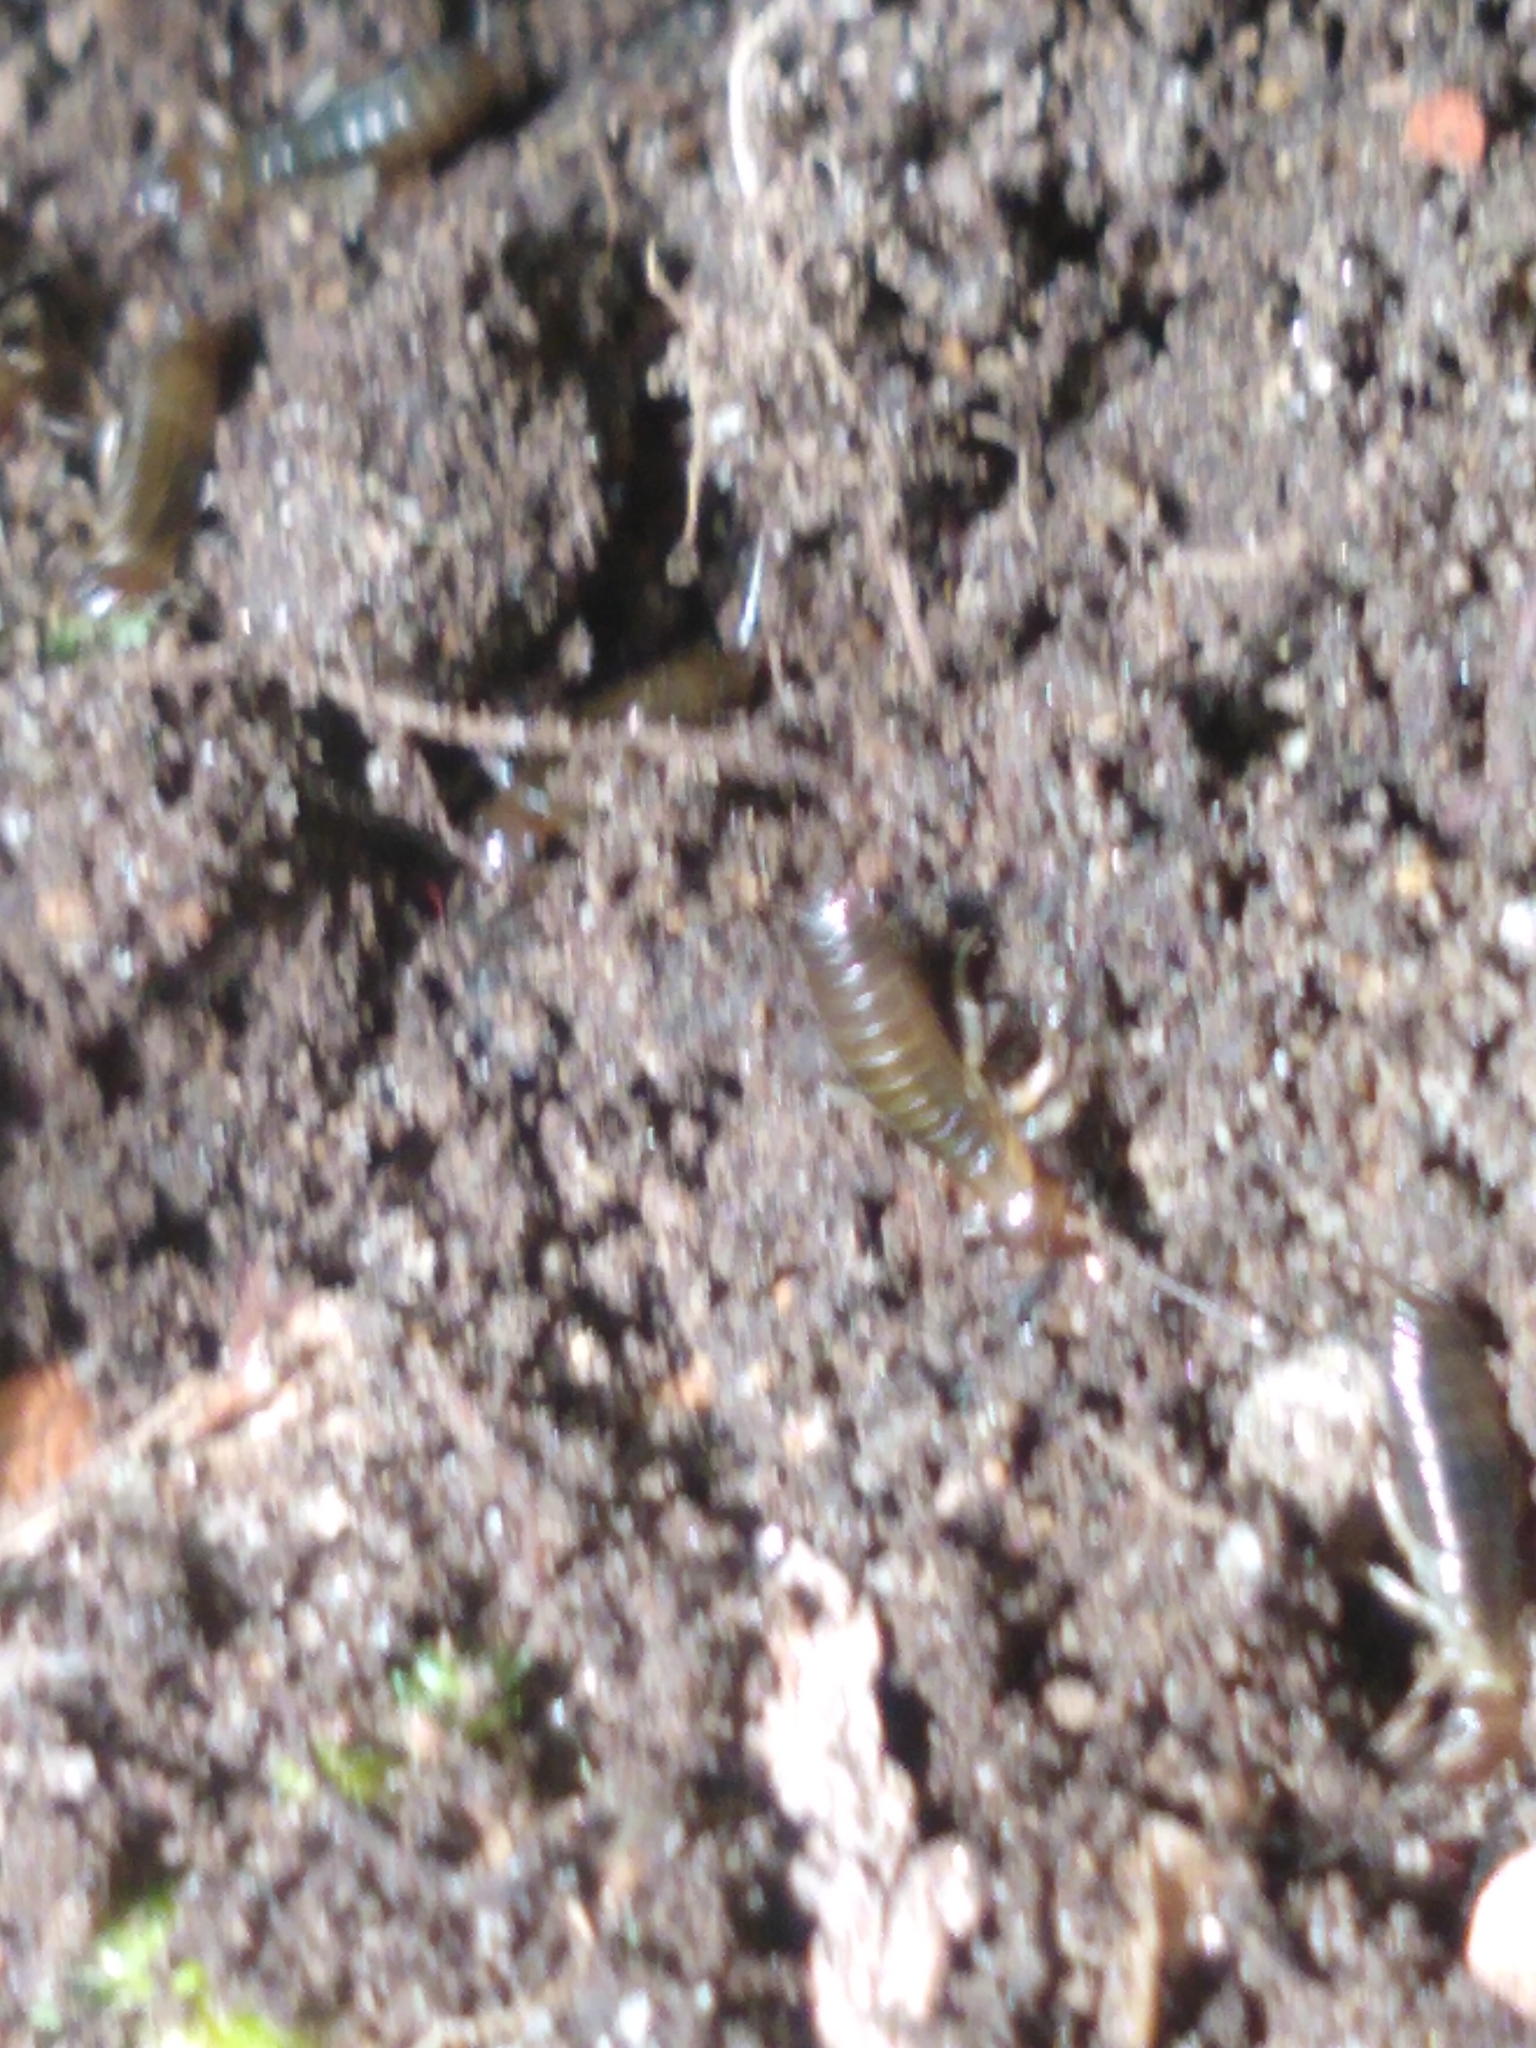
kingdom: Animalia
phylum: Arthropoda
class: Insecta
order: Dermaptera
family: Forficulidae
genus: Forficula
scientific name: Forficula
